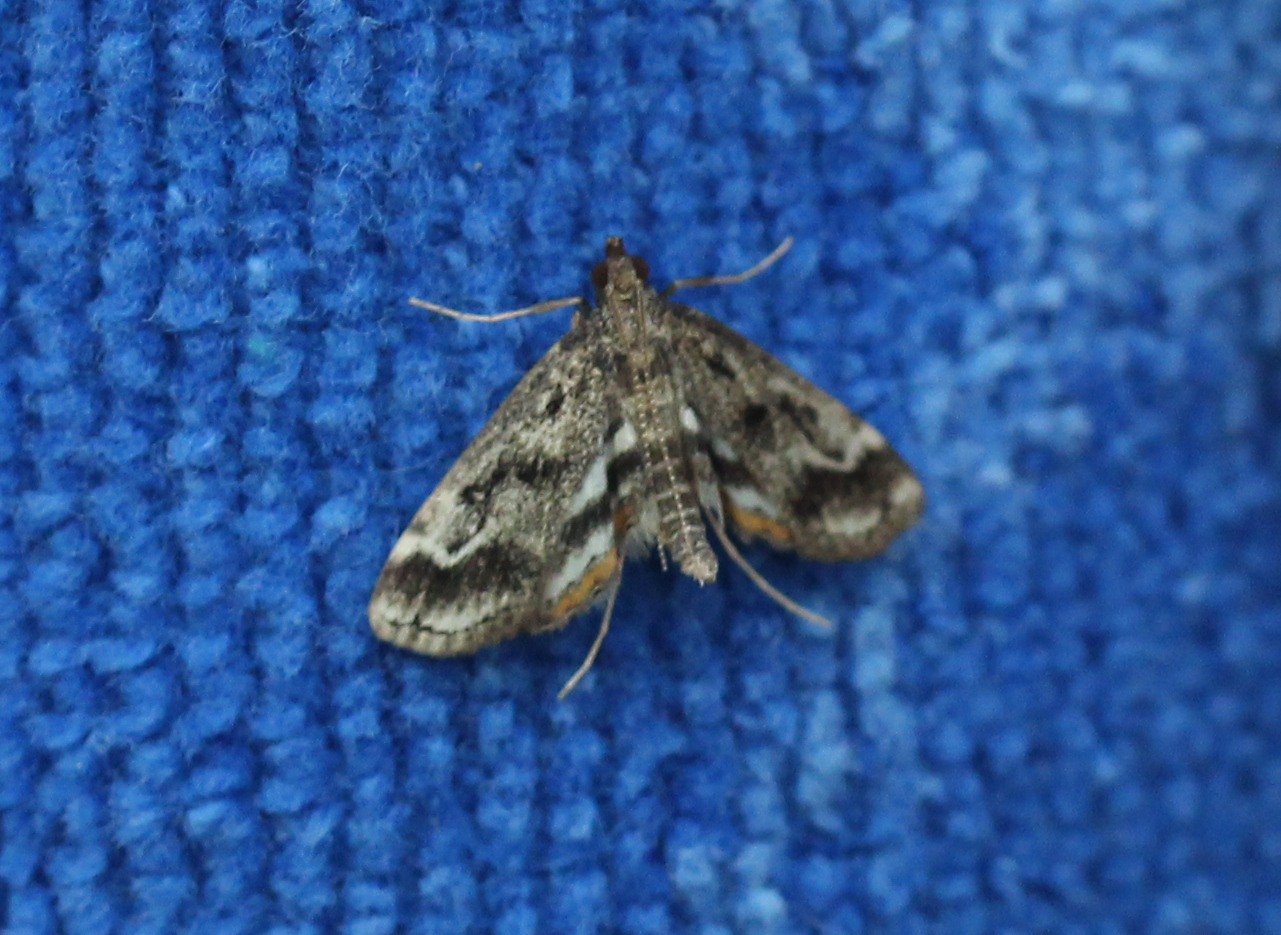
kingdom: Animalia
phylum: Arthropoda
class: Insecta
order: Lepidoptera
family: Crambidae
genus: Parapoynx
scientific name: Parapoynx obscuralis
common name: American china-mark
